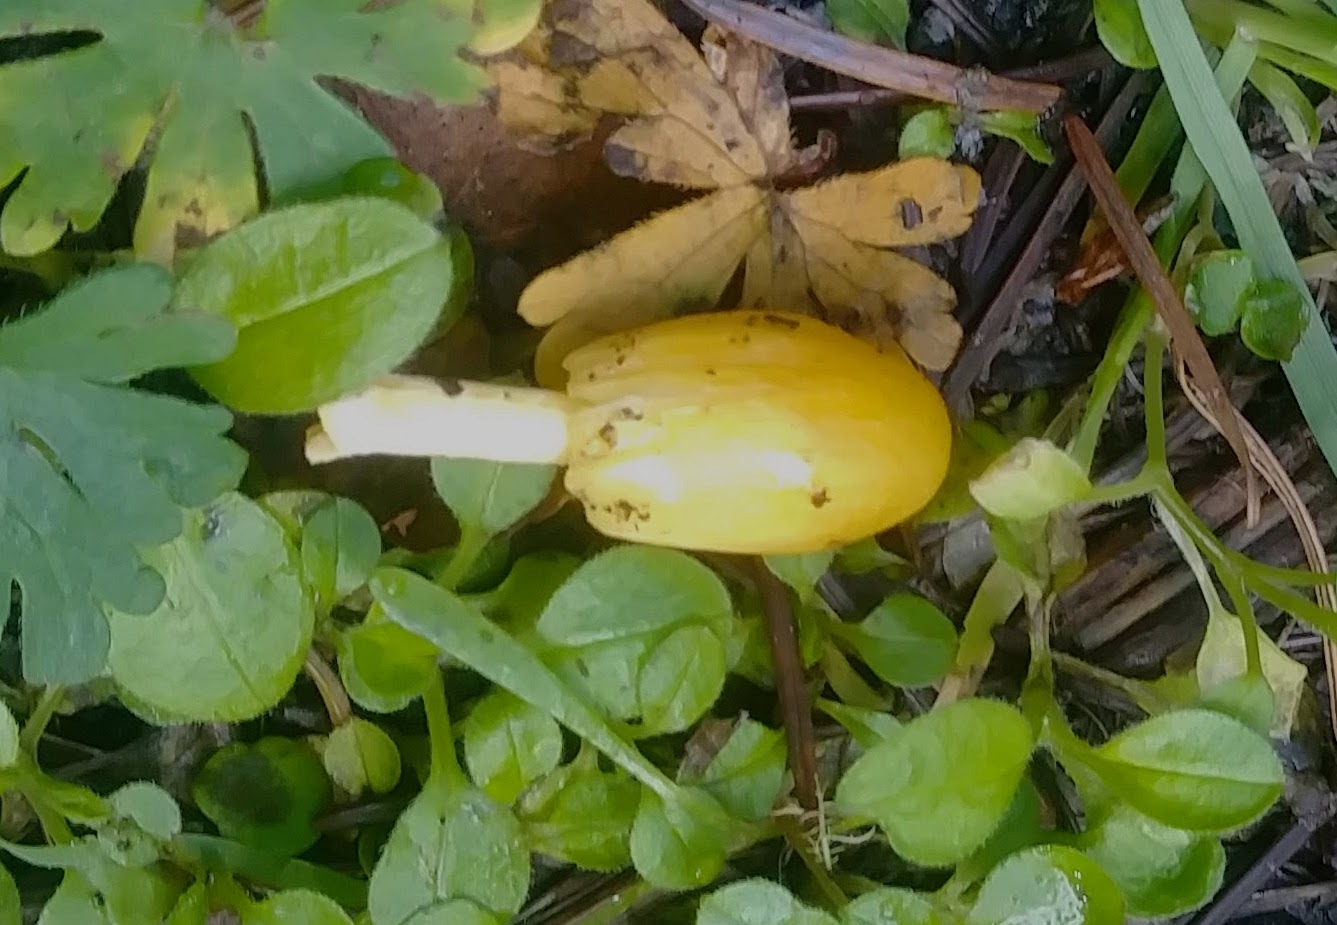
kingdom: Fungi
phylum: Basidiomycota
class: Agaricomycetes
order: Agaricales
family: Bolbitiaceae
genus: Bolbitius
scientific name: Bolbitius titubans
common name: Yellow fieldcap
